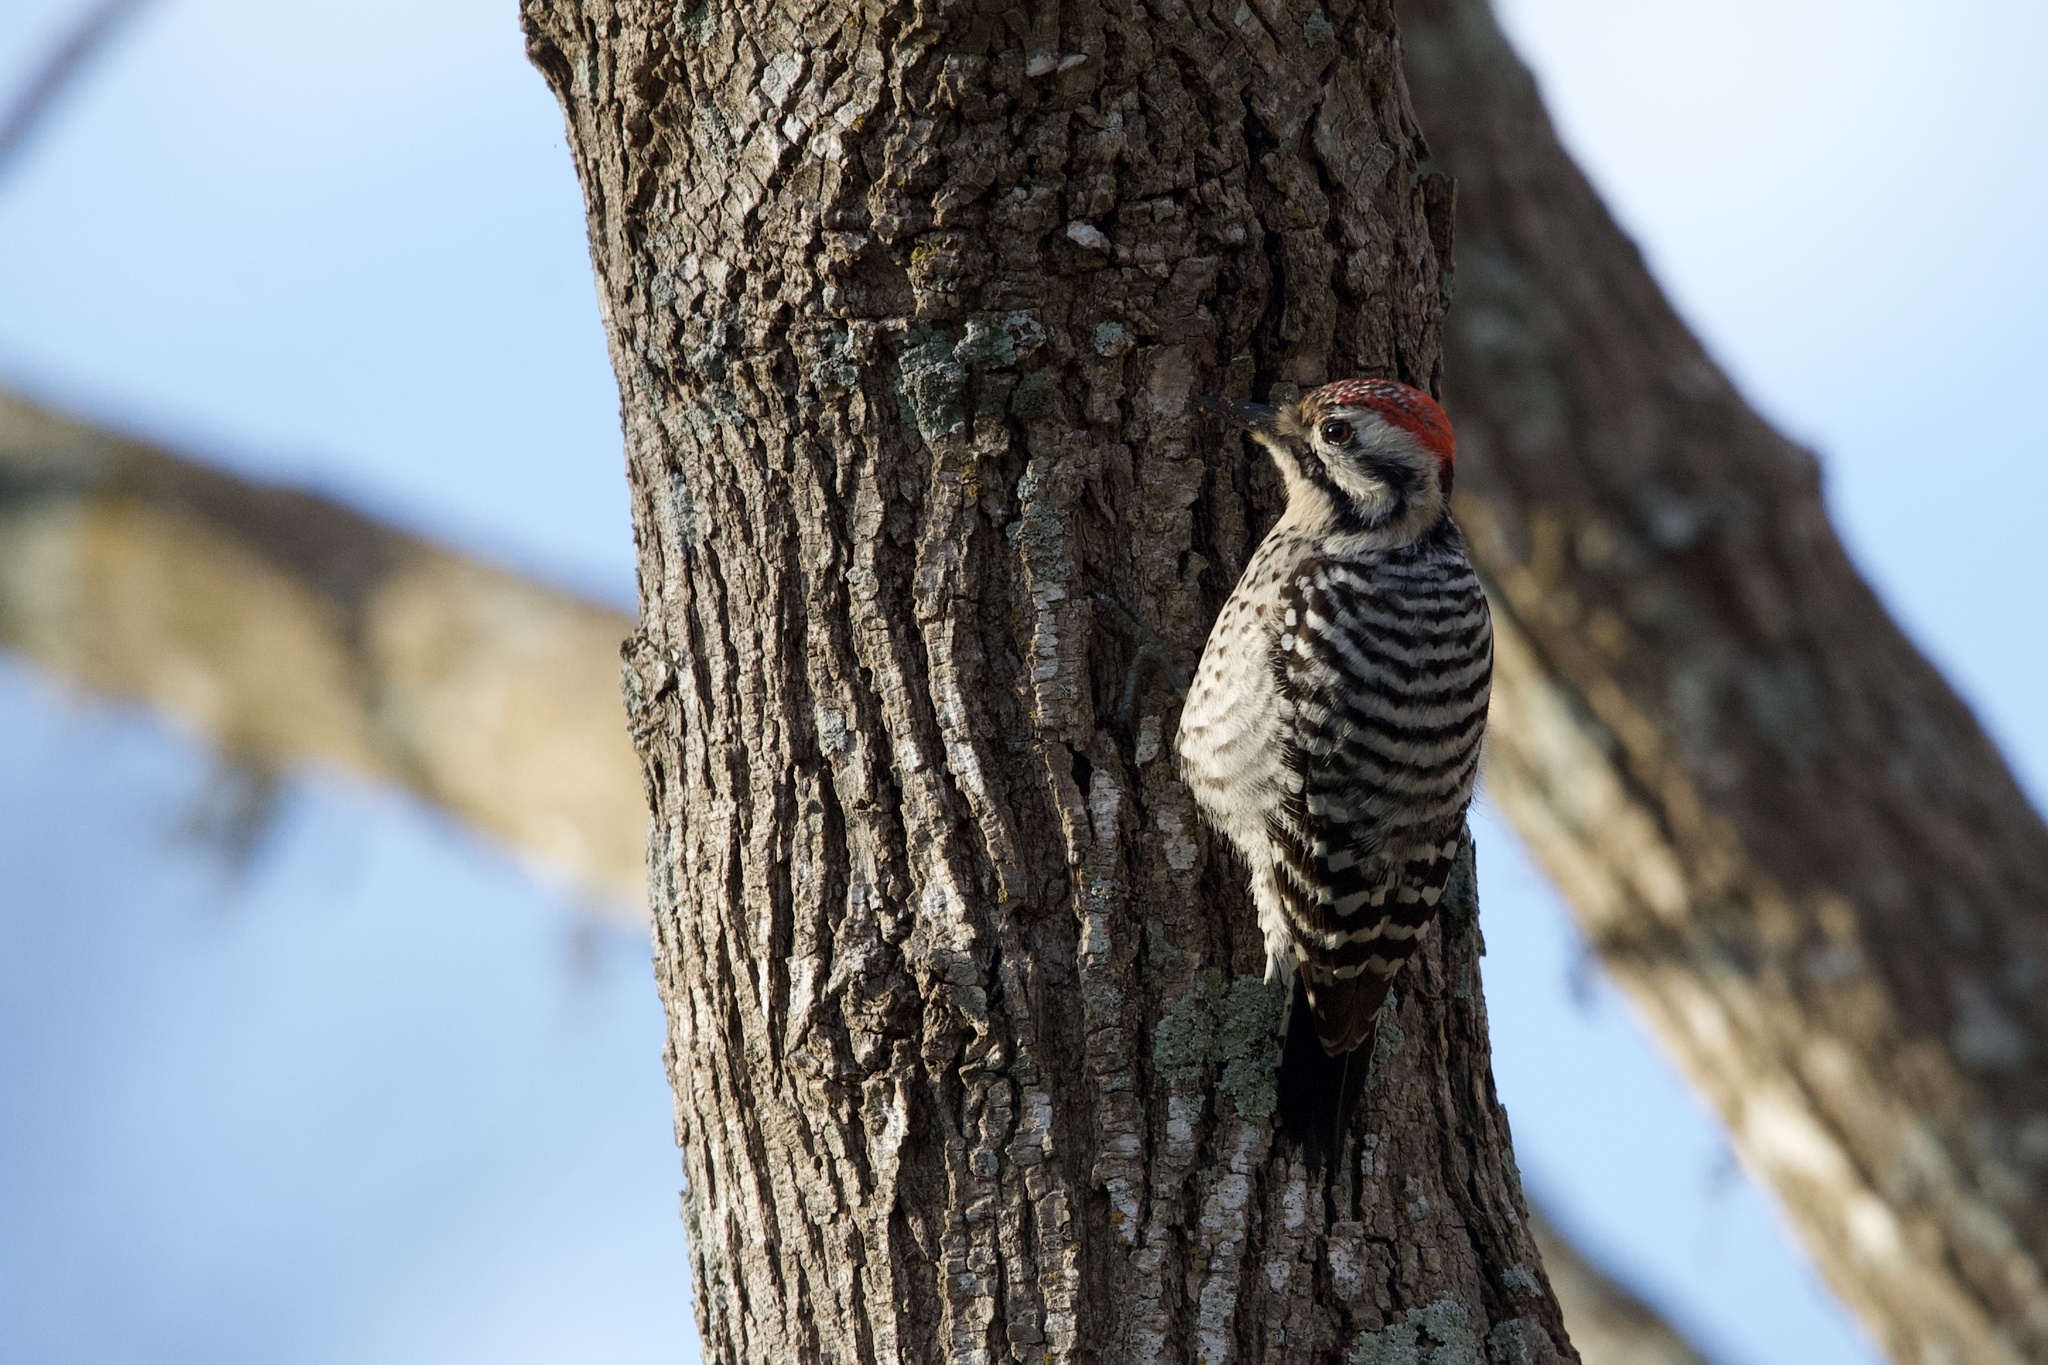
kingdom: Animalia
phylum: Chordata
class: Aves
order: Piciformes
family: Picidae
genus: Dryobates
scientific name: Dryobates scalaris
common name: Ladder-backed woodpecker
